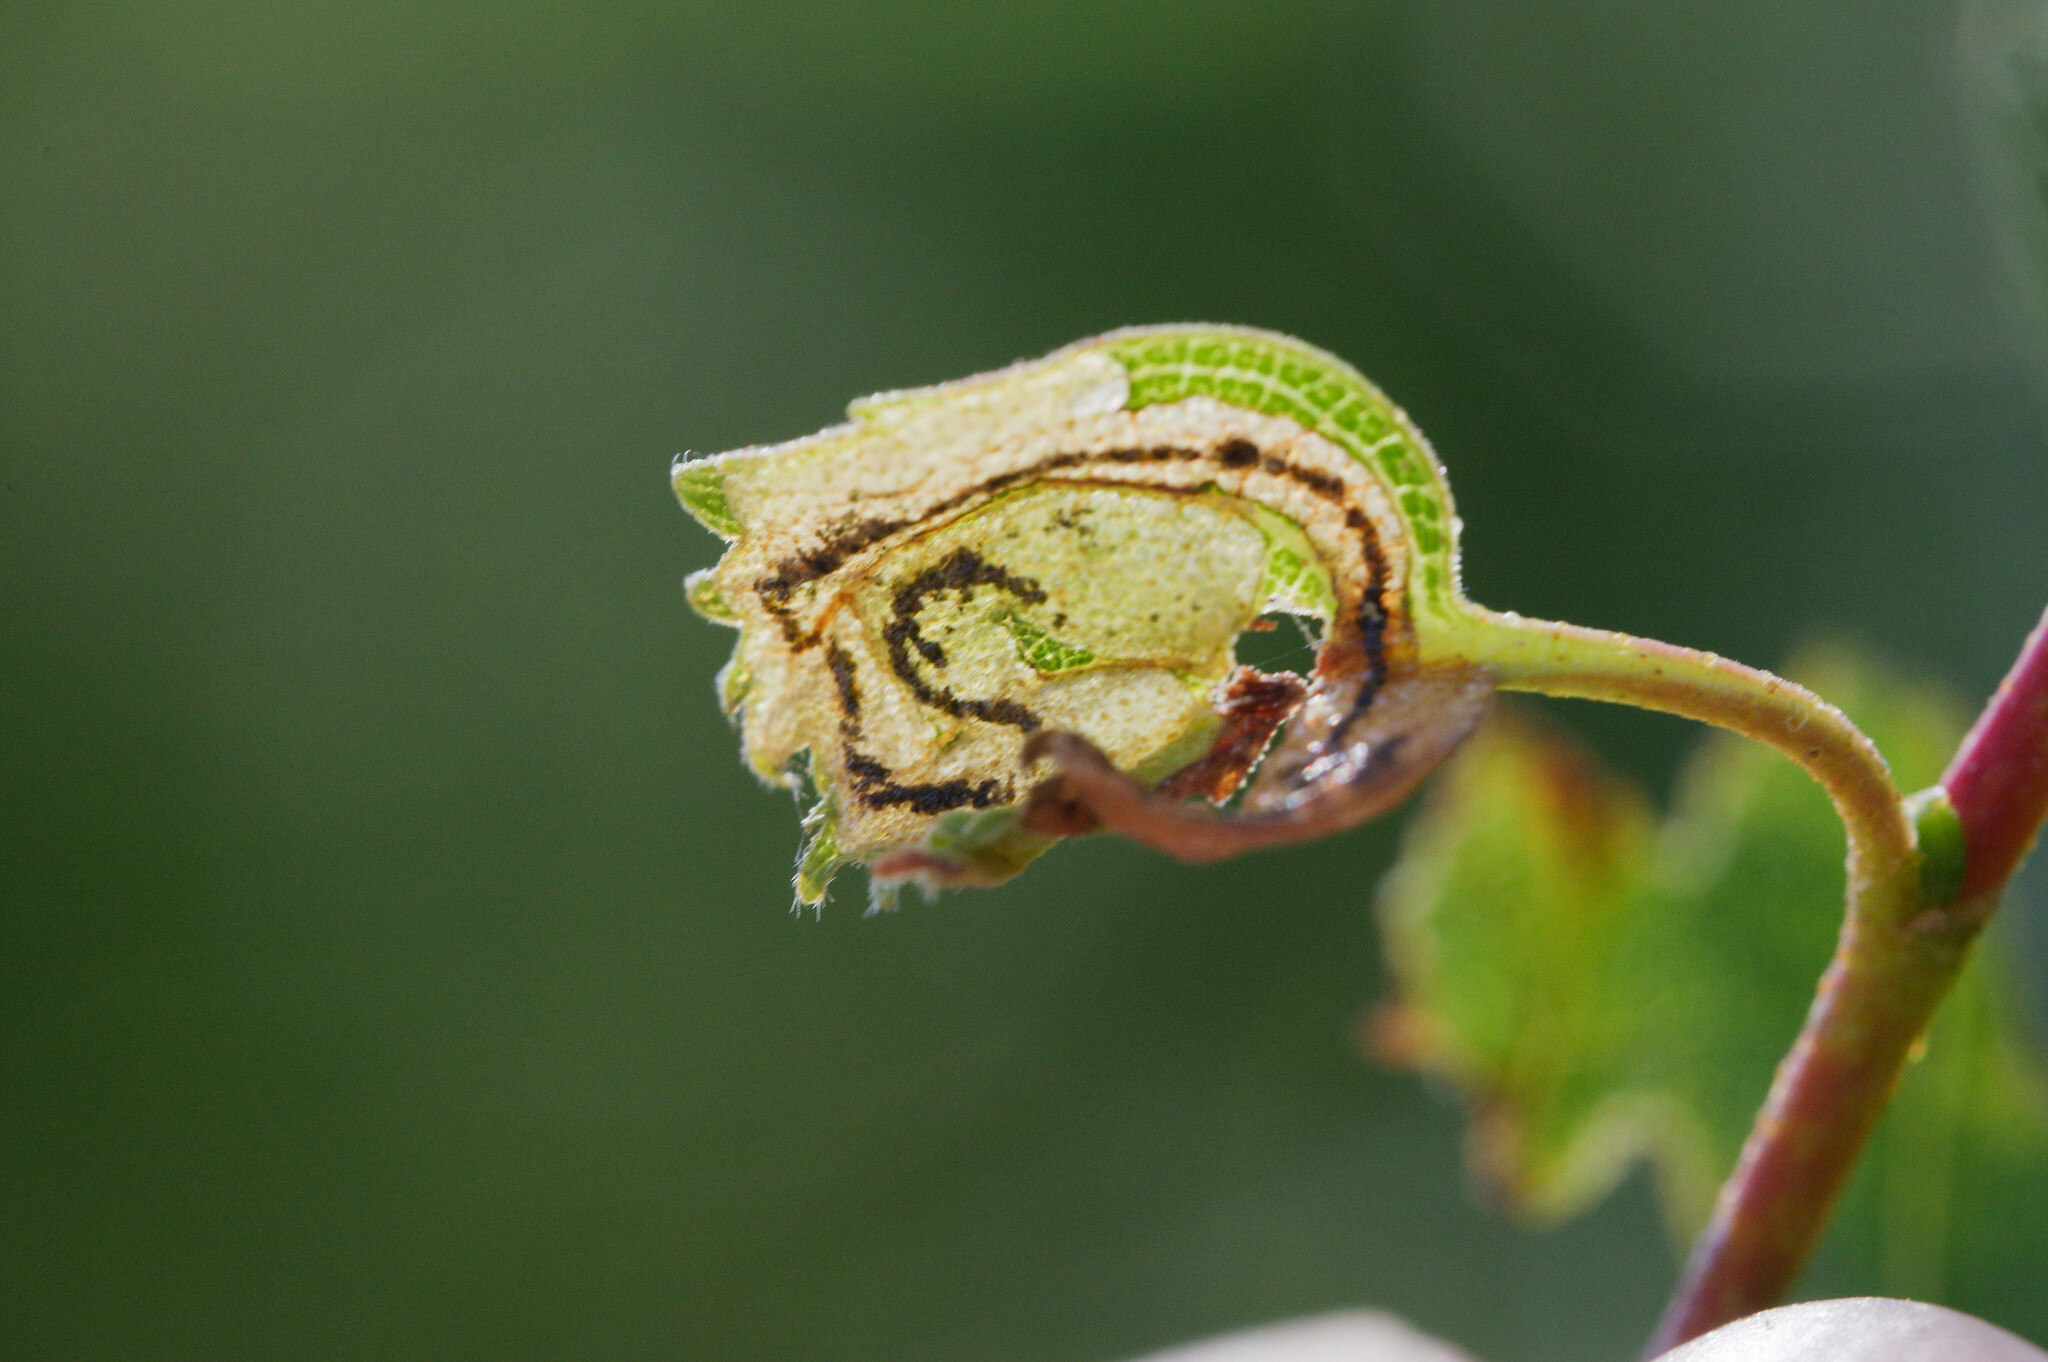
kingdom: Animalia
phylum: Arthropoda
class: Insecta
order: Coleoptera
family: Curculionidae
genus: Anoplus
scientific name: Anoplus plantaris
